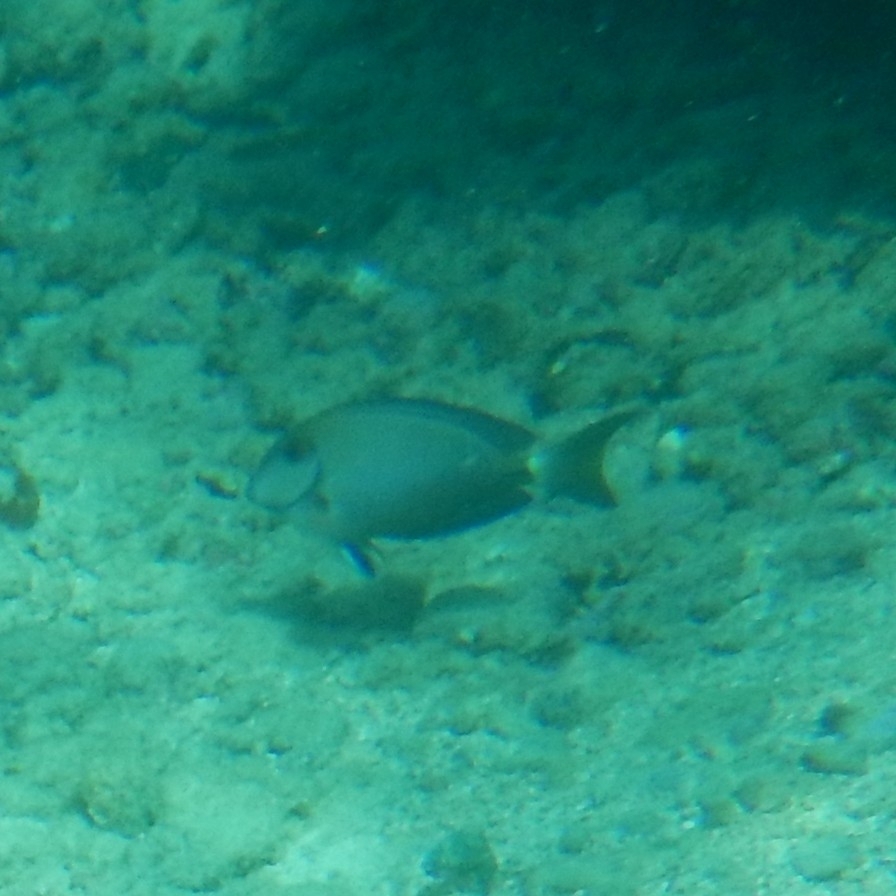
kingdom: Animalia
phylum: Chordata
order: Perciformes
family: Acanthuridae
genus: Acanthurus
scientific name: Acanthurus bahianus
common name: Ocean surgeon
